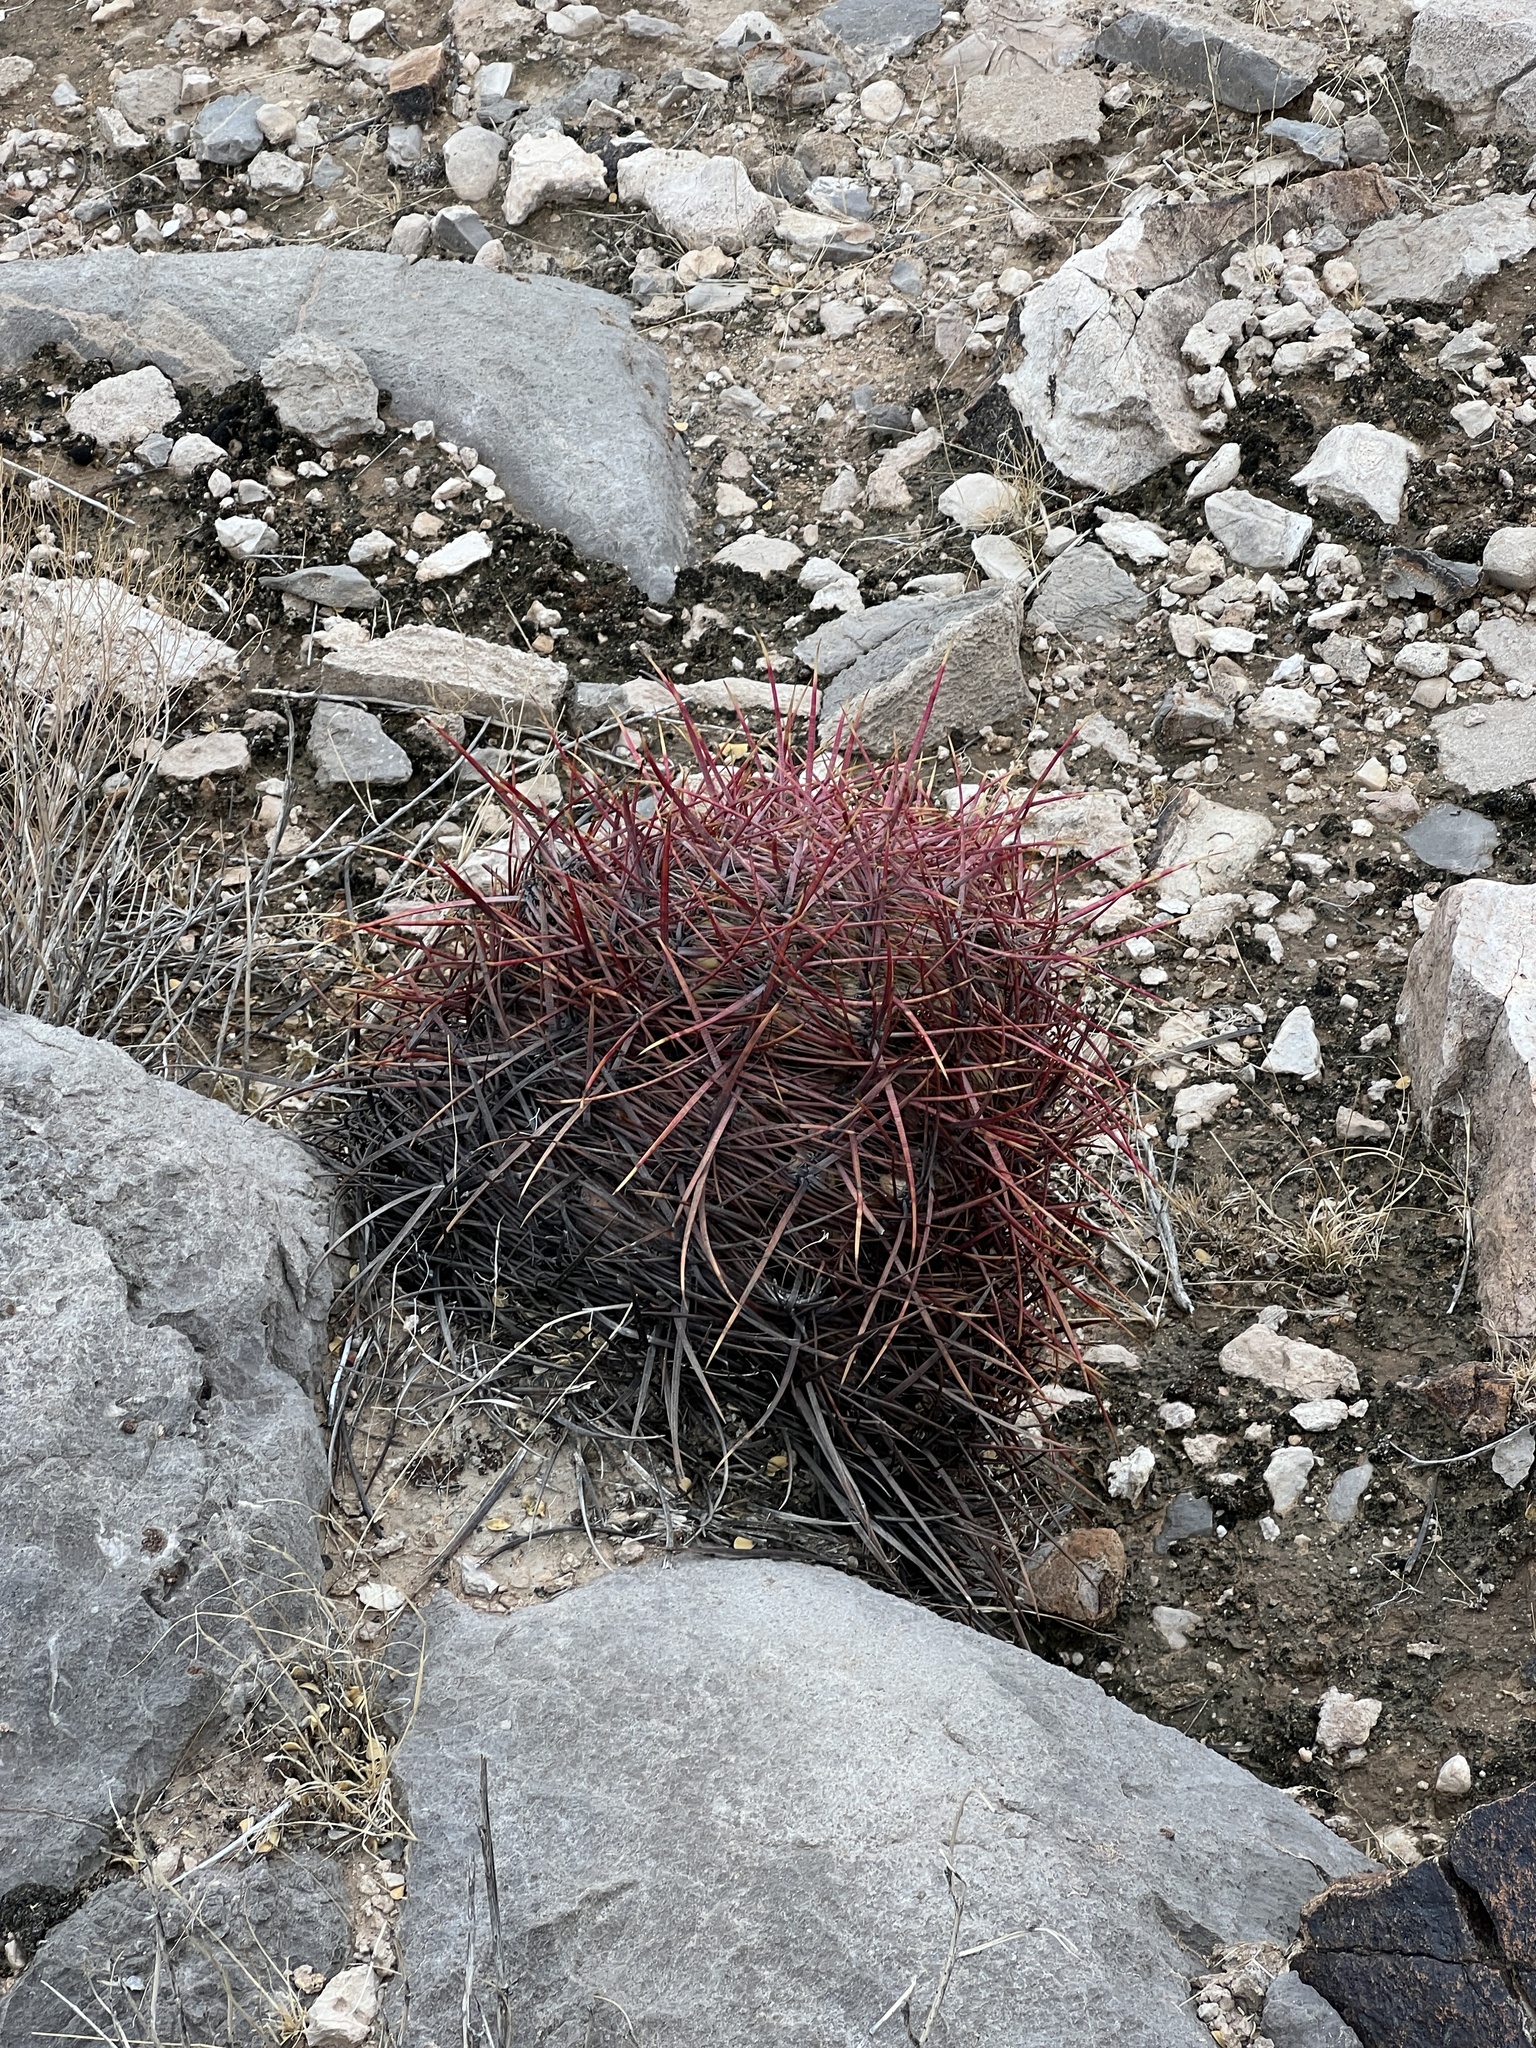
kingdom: Plantae
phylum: Tracheophyta
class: Magnoliopsida
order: Caryophyllales
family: Cactaceae
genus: Ferocactus
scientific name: Ferocactus cylindraceus
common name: California barrel cactus
